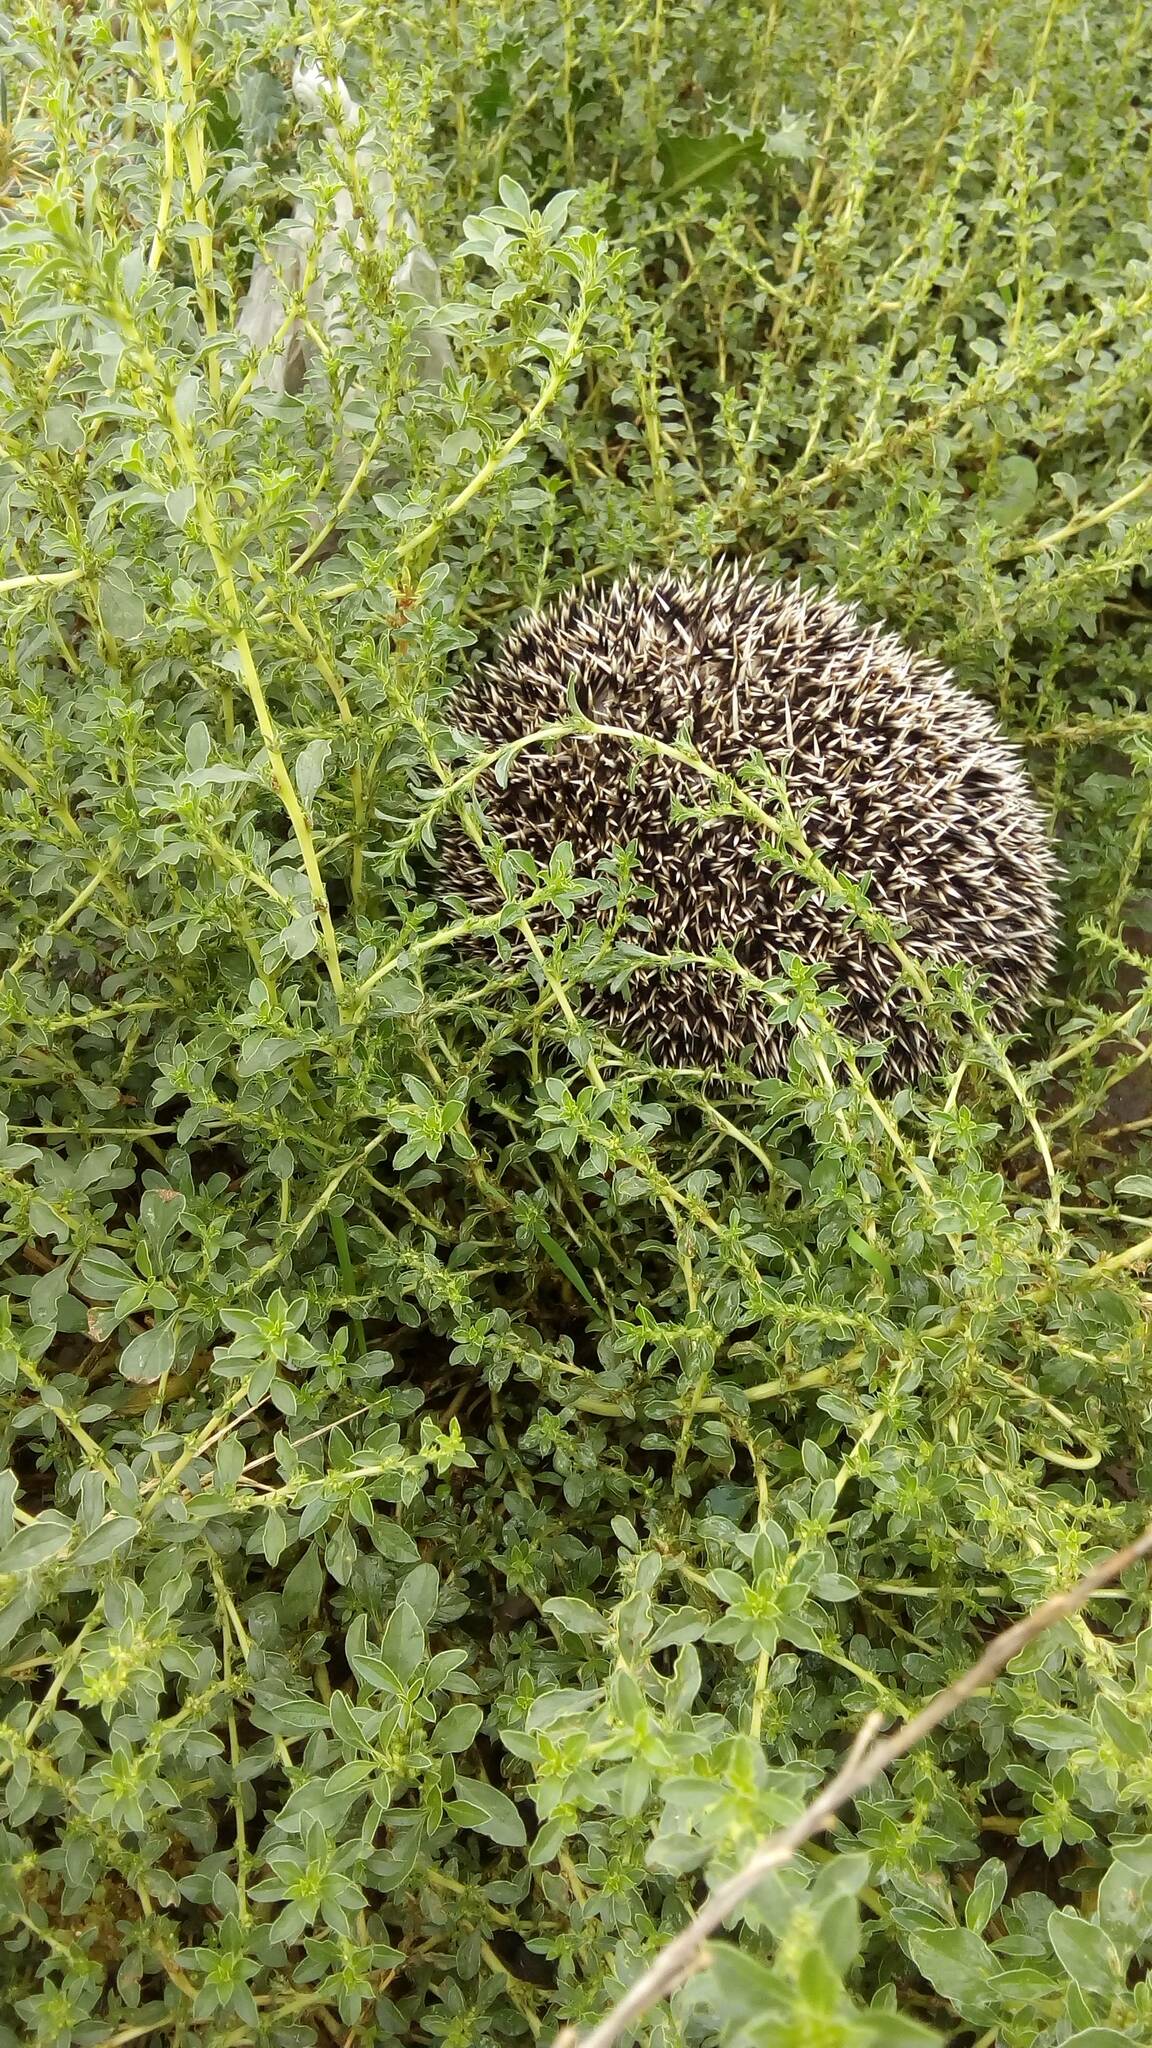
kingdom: Animalia
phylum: Chordata
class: Mammalia
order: Erinaceomorpha
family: Erinaceidae
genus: Atelerix
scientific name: Atelerix algirus
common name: North african hedgehog
